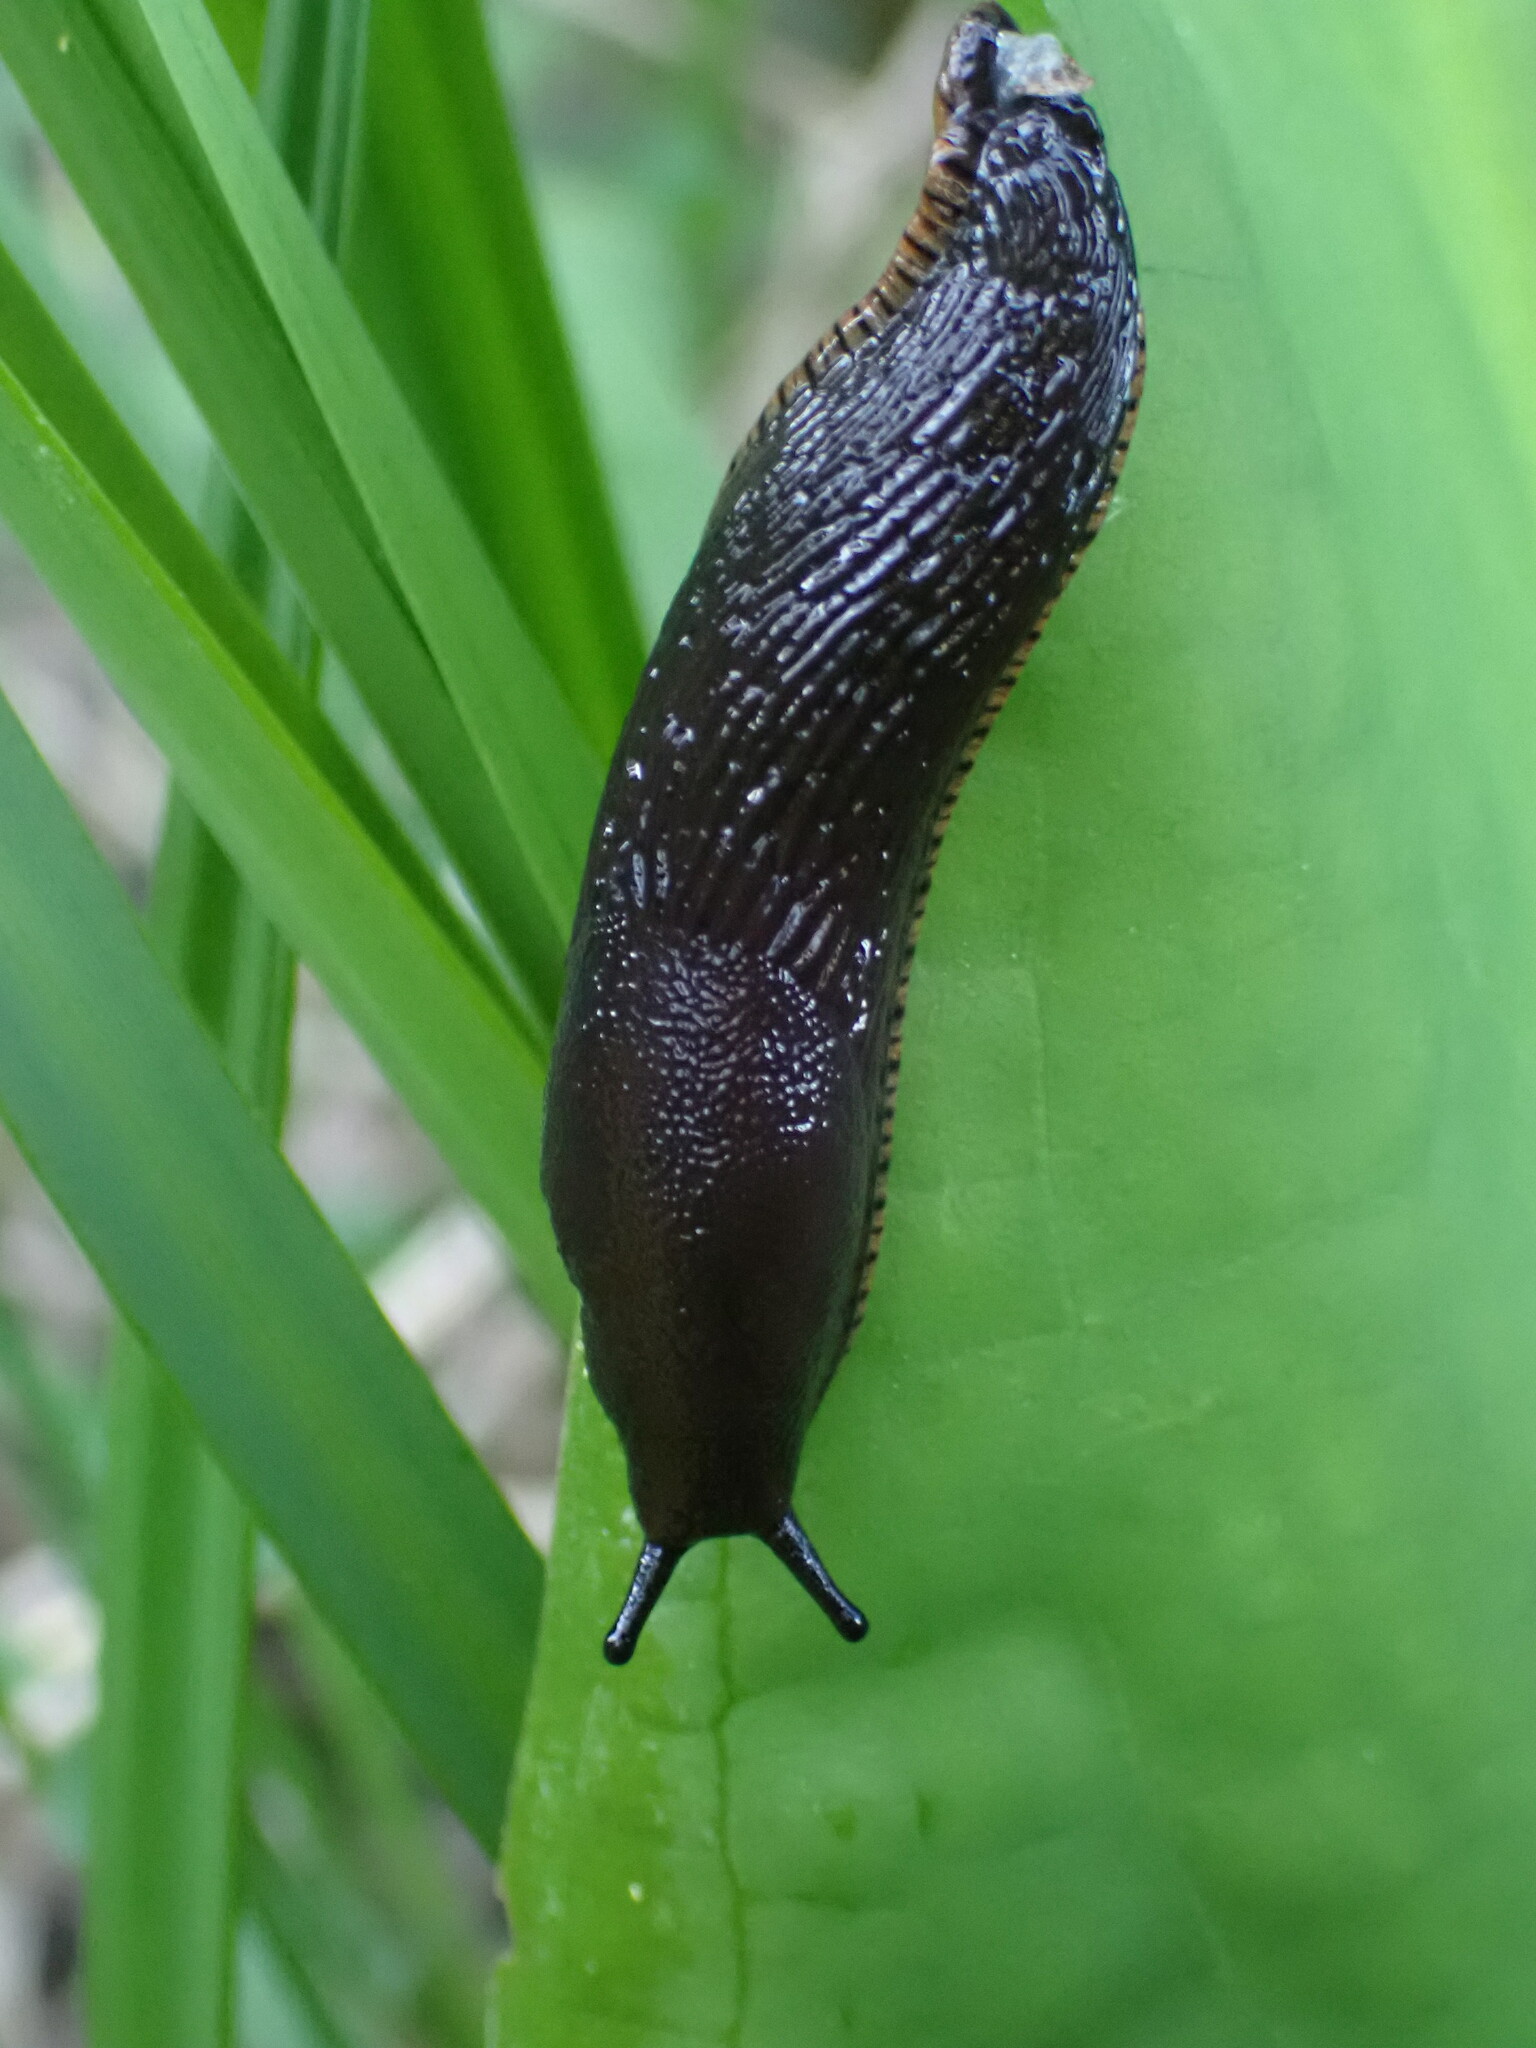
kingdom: Animalia
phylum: Mollusca
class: Gastropoda
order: Stylommatophora
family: Arionidae
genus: Arion
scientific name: Arion
